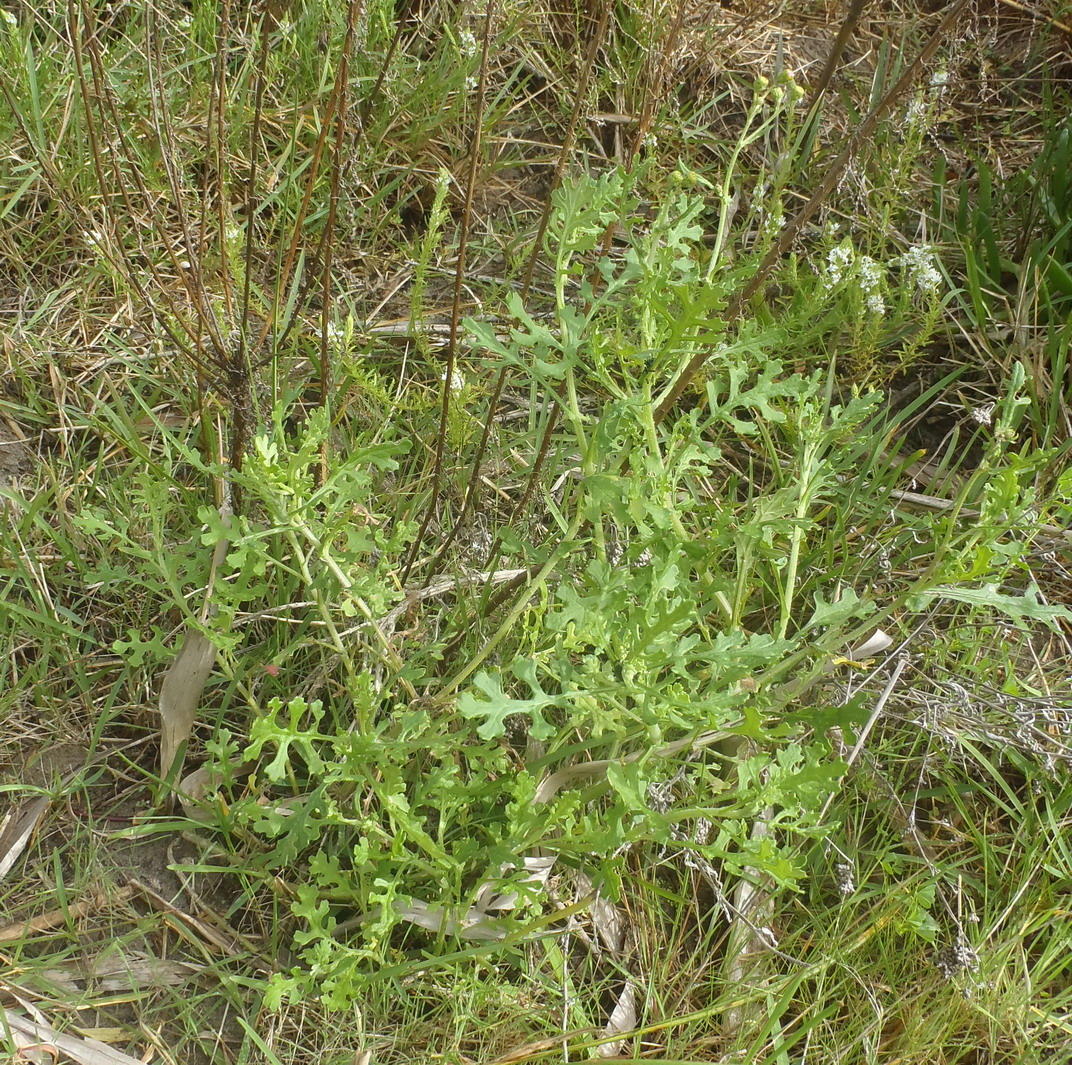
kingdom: Plantae
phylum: Tracheophyta
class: Magnoliopsida
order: Asterales
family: Asteraceae
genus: Senecio
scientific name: Senecio elegans
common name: Purple groundsel
